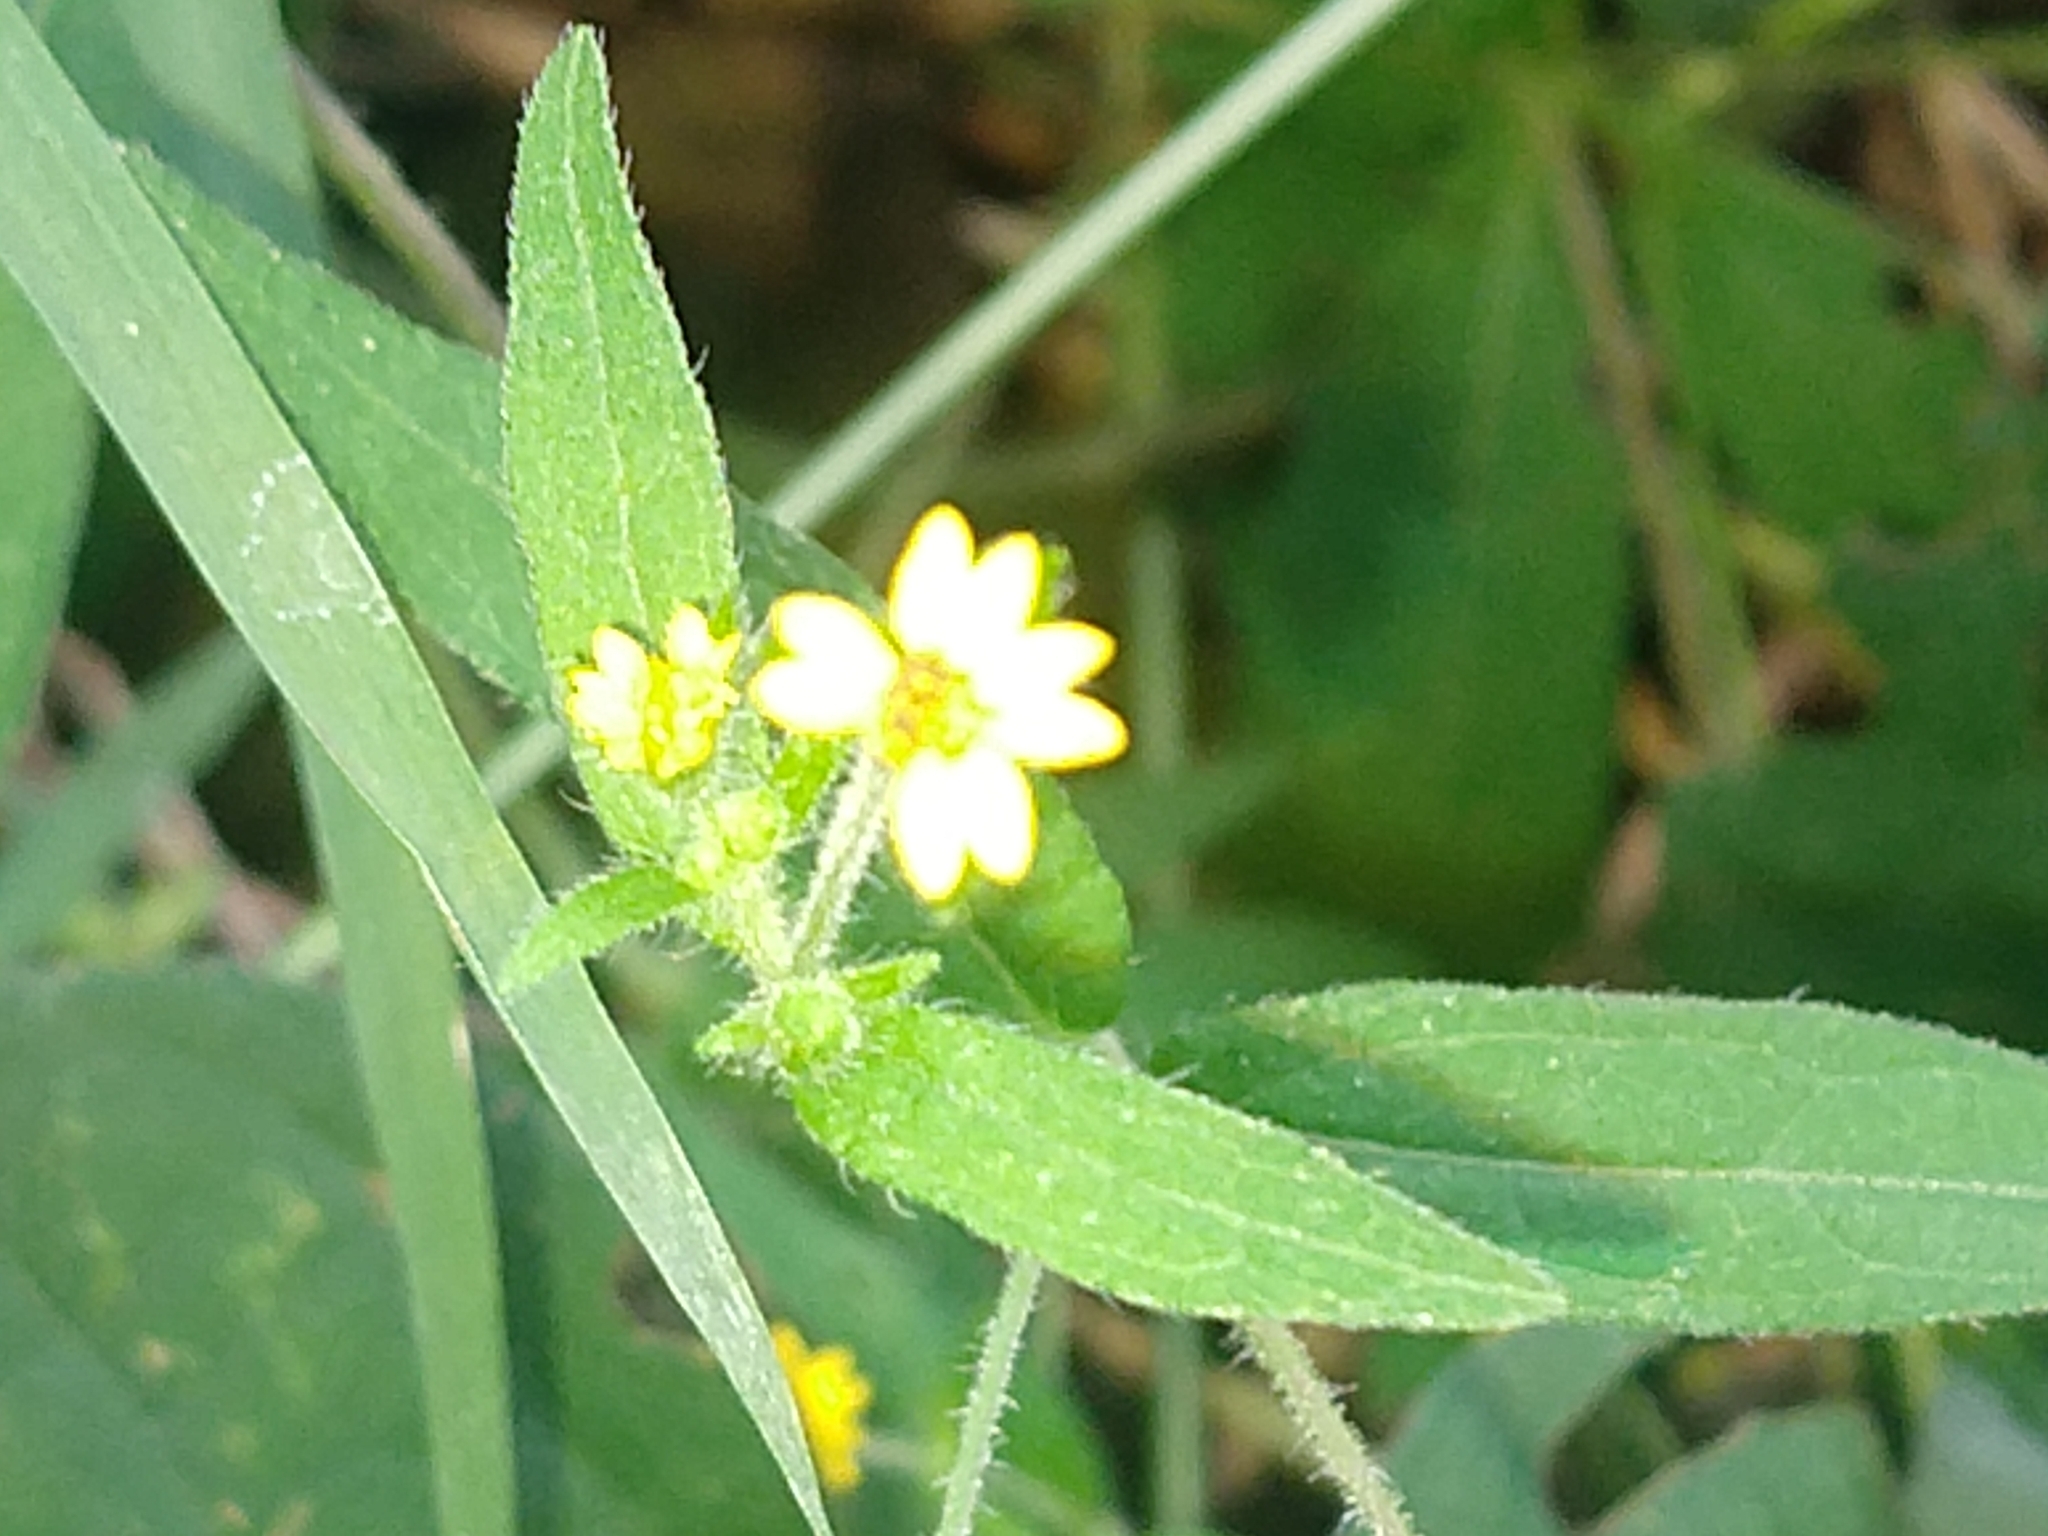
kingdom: Plantae
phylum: Tracheophyta
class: Magnoliopsida
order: Asterales
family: Asteraceae
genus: Melampodium
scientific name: Melampodium gracile
